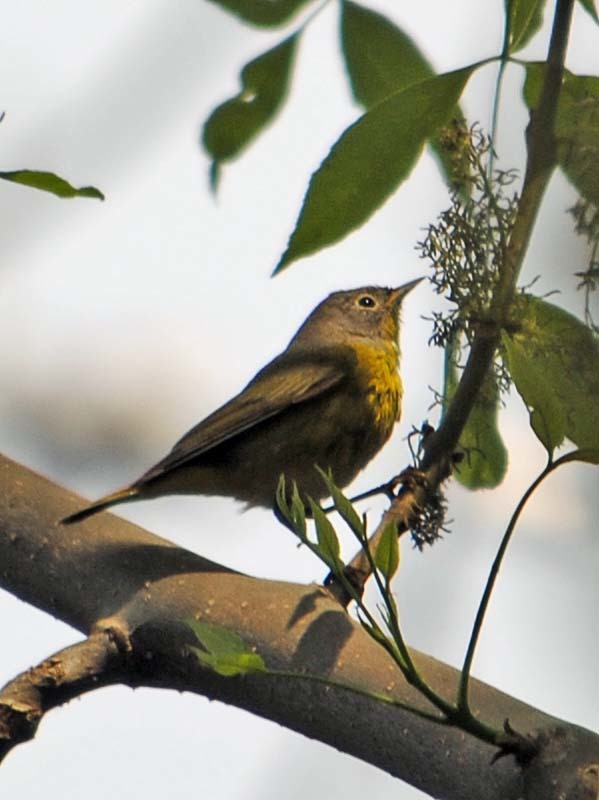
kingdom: Animalia
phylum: Chordata
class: Aves
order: Passeriformes
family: Parulidae
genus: Leiothlypis
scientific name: Leiothlypis ruficapilla
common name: Nashville warbler
